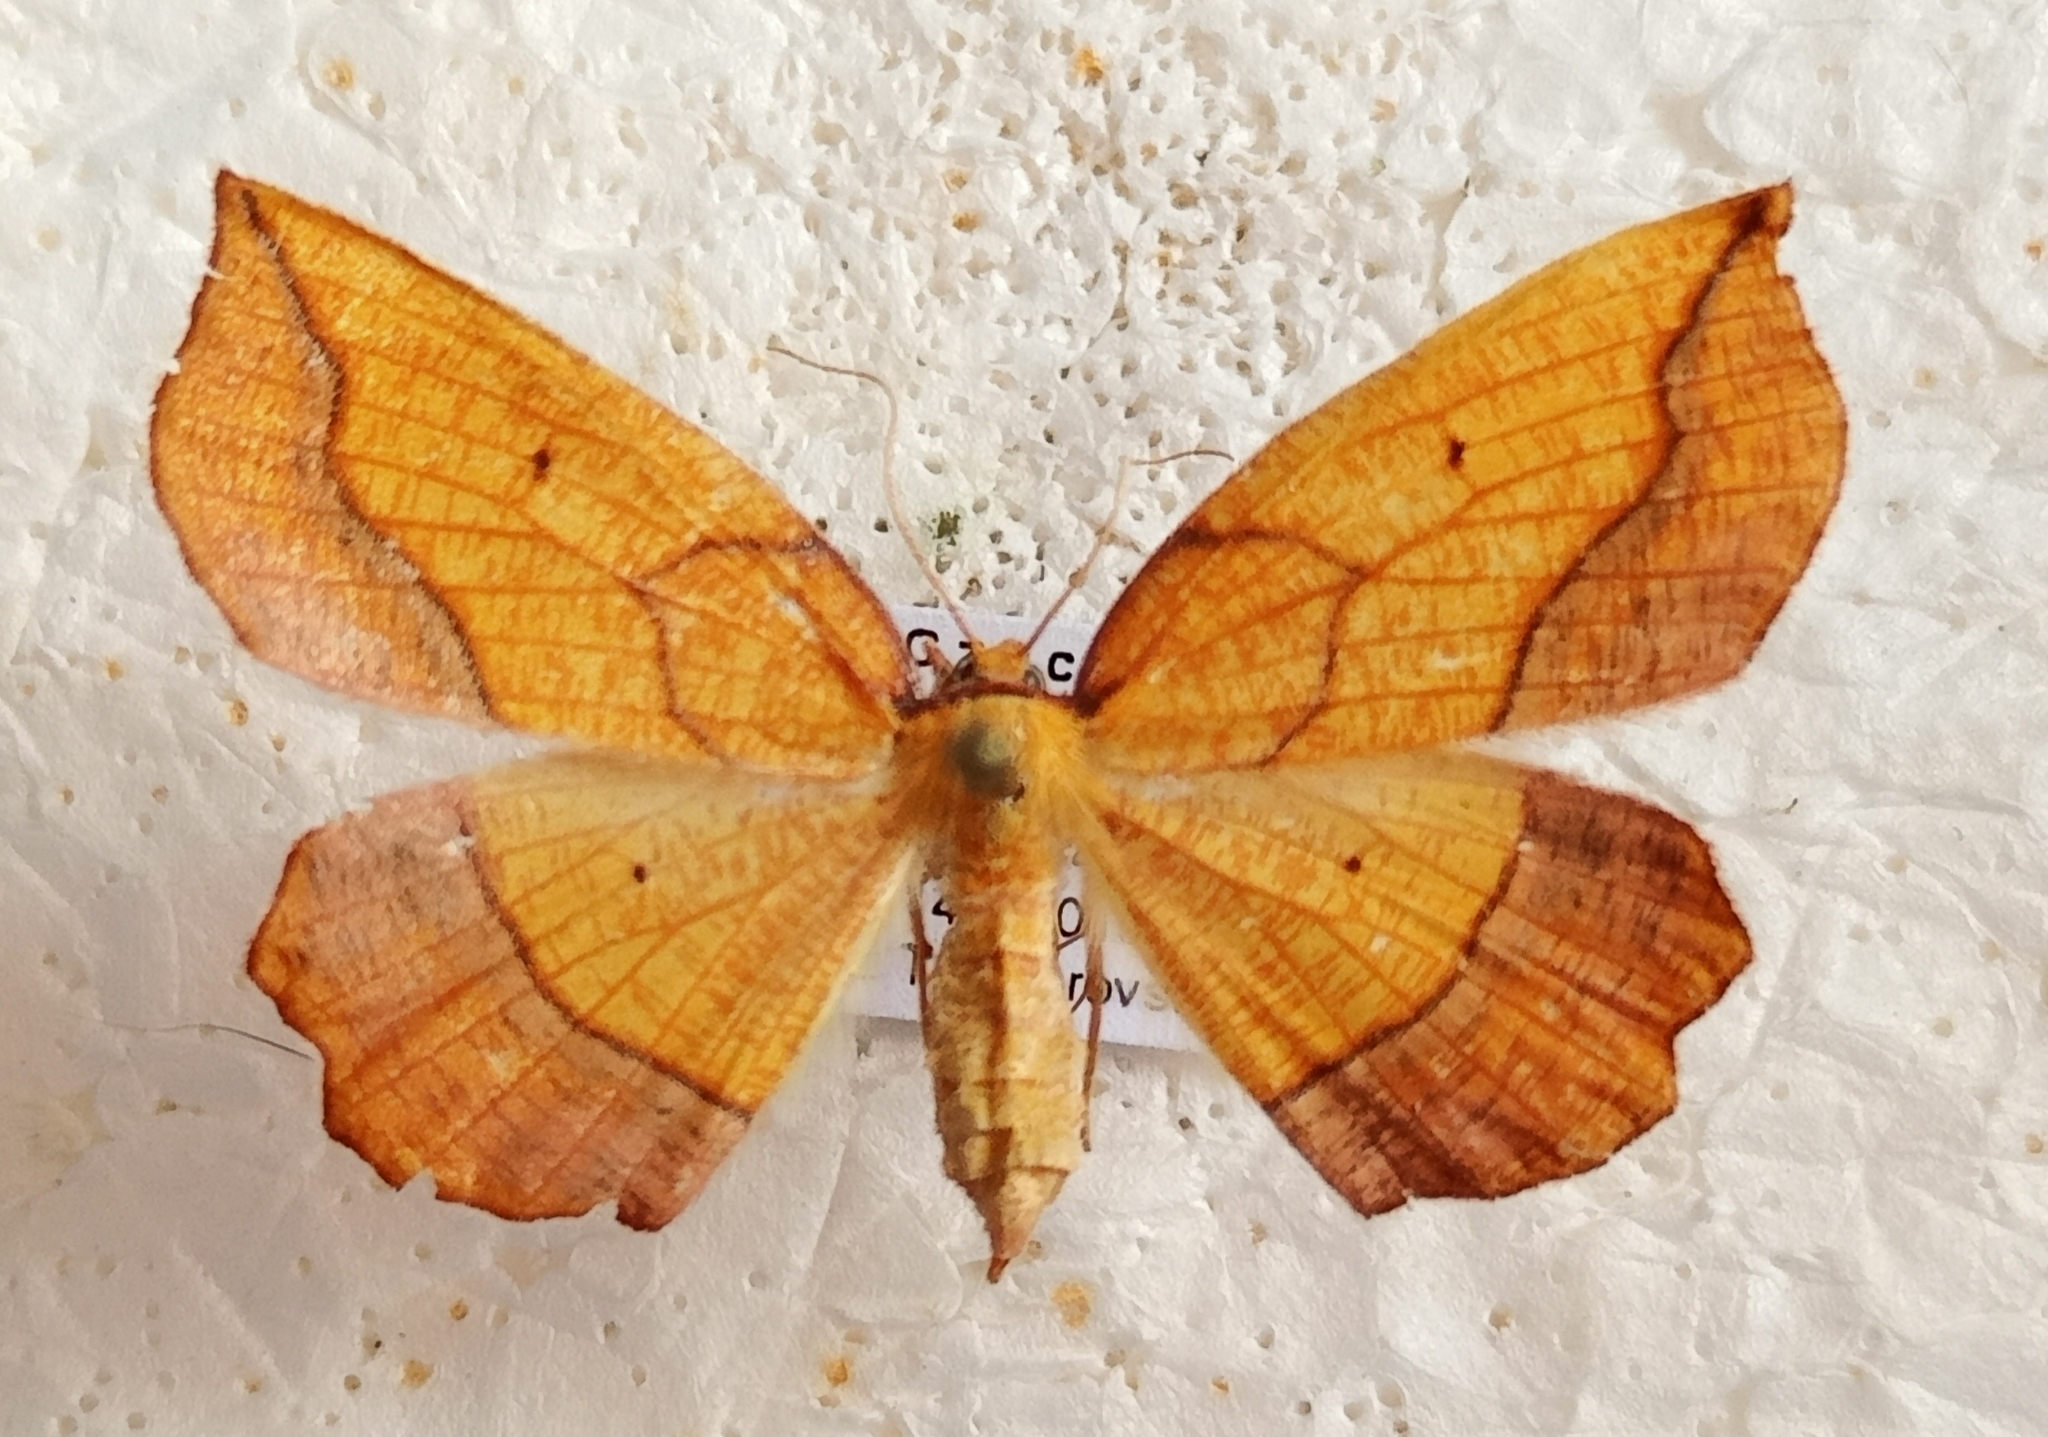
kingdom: Animalia
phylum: Arthropoda
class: Insecta
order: Lepidoptera
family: Geometridae
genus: Epione
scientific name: Epione repandaria
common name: Bordered beauty
